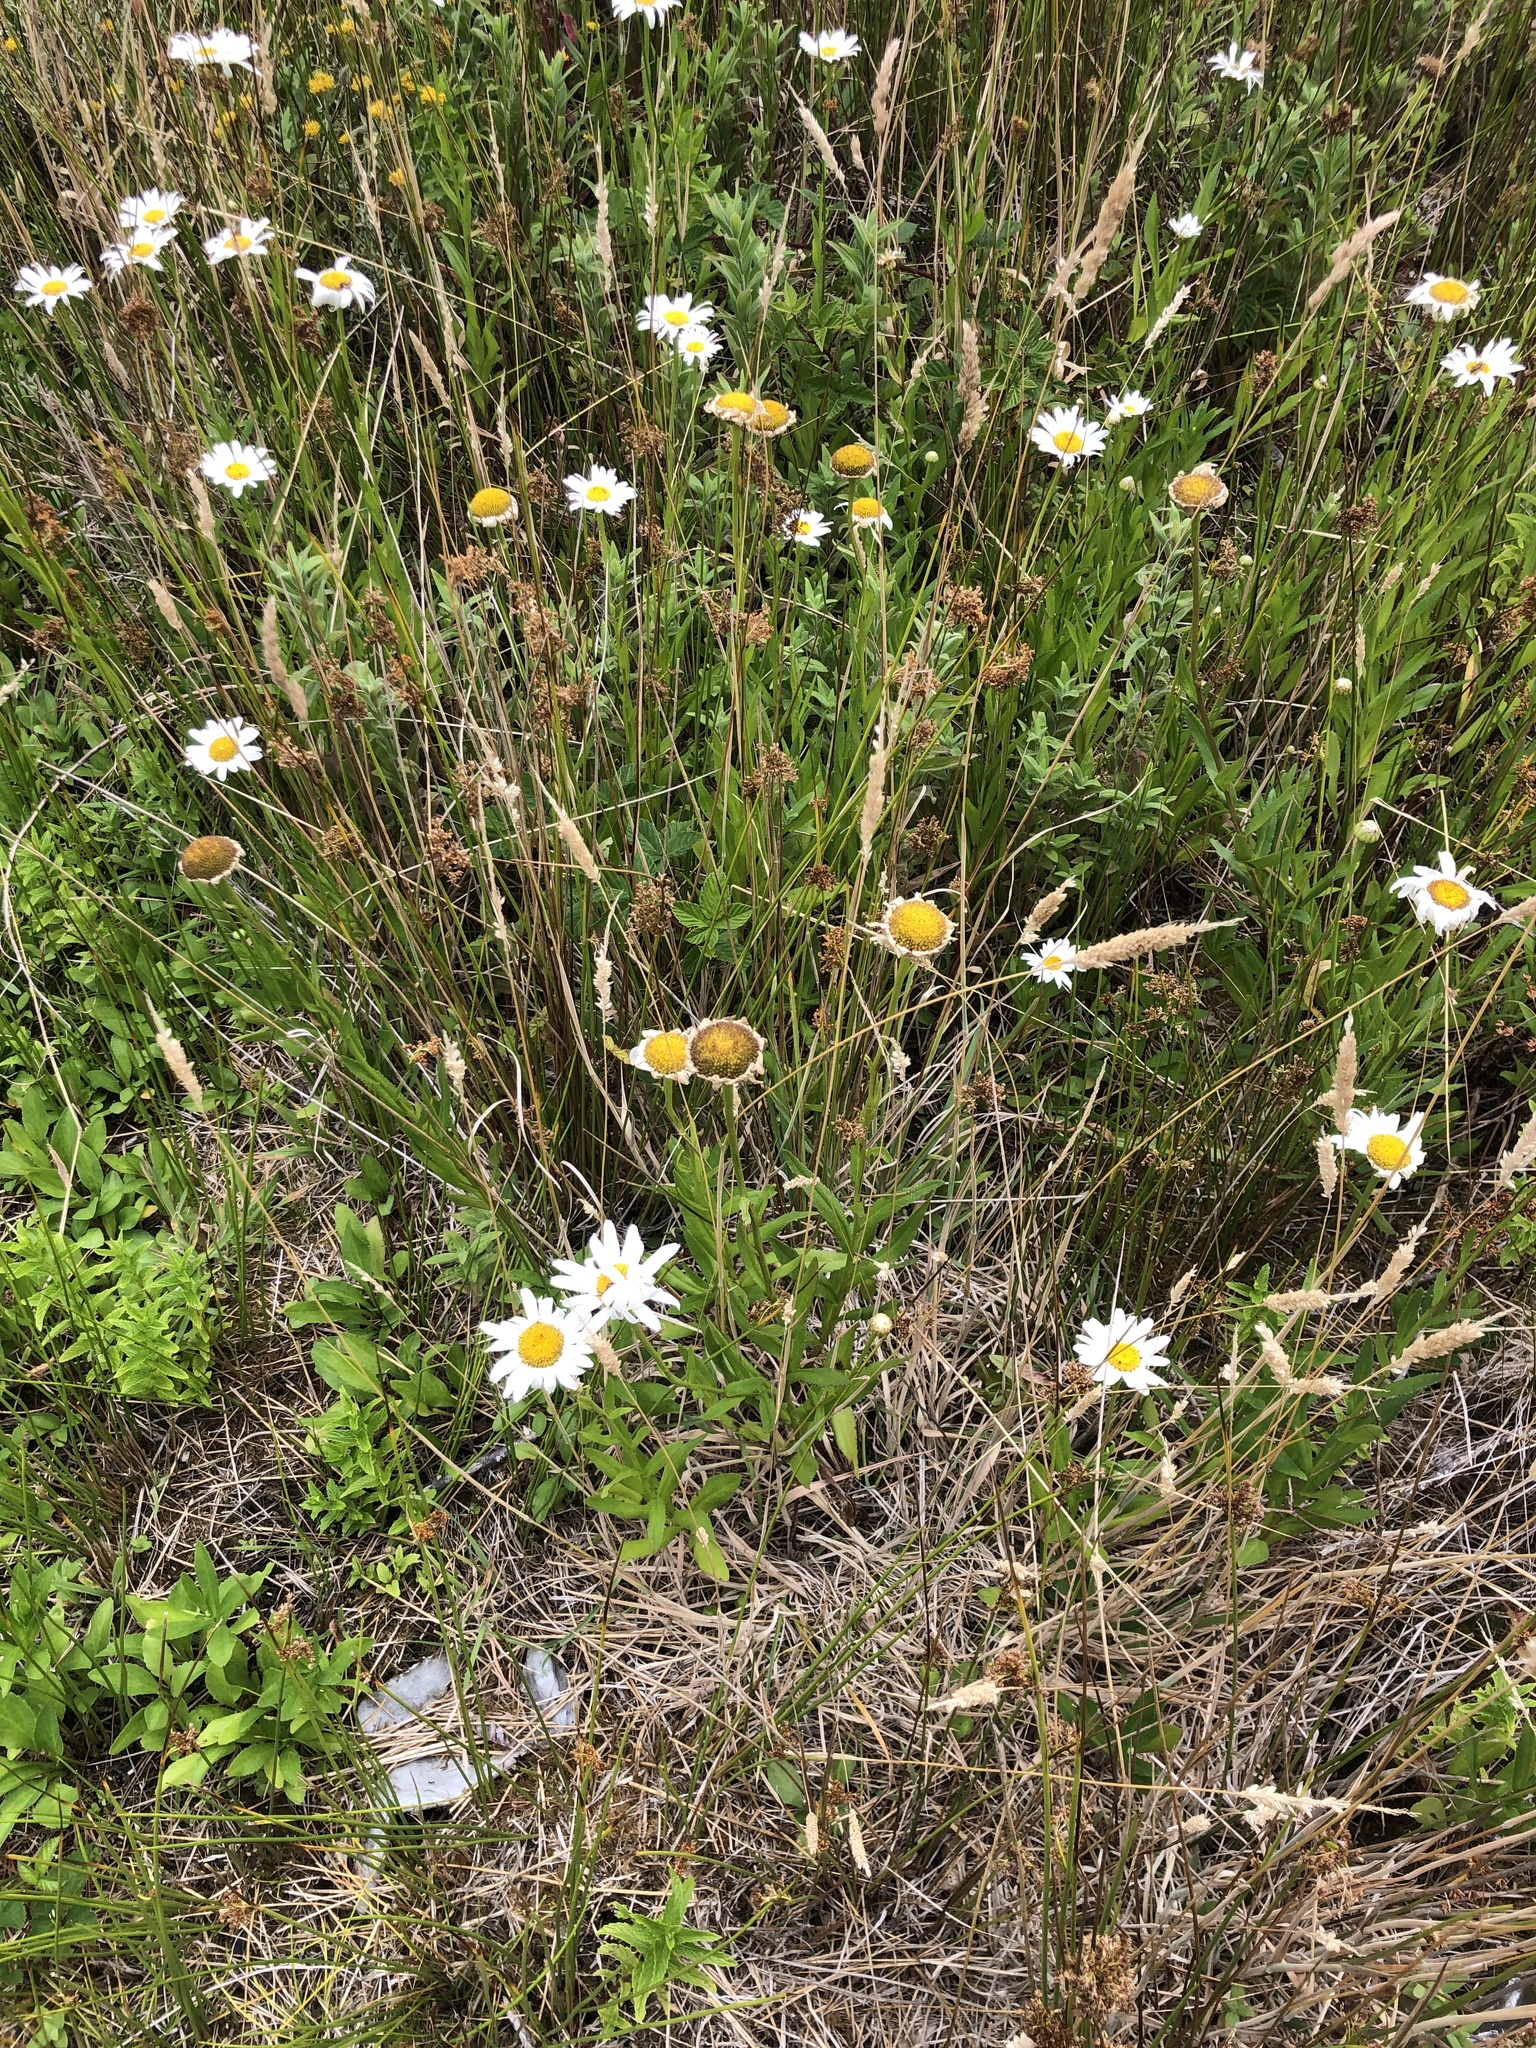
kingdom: Plantae
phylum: Tracheophyta
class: Magnoliopsida
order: Asterales
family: Asteraceae
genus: Leucanthemum
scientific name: Leucanthemum maximum
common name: Max chrysanthemum
